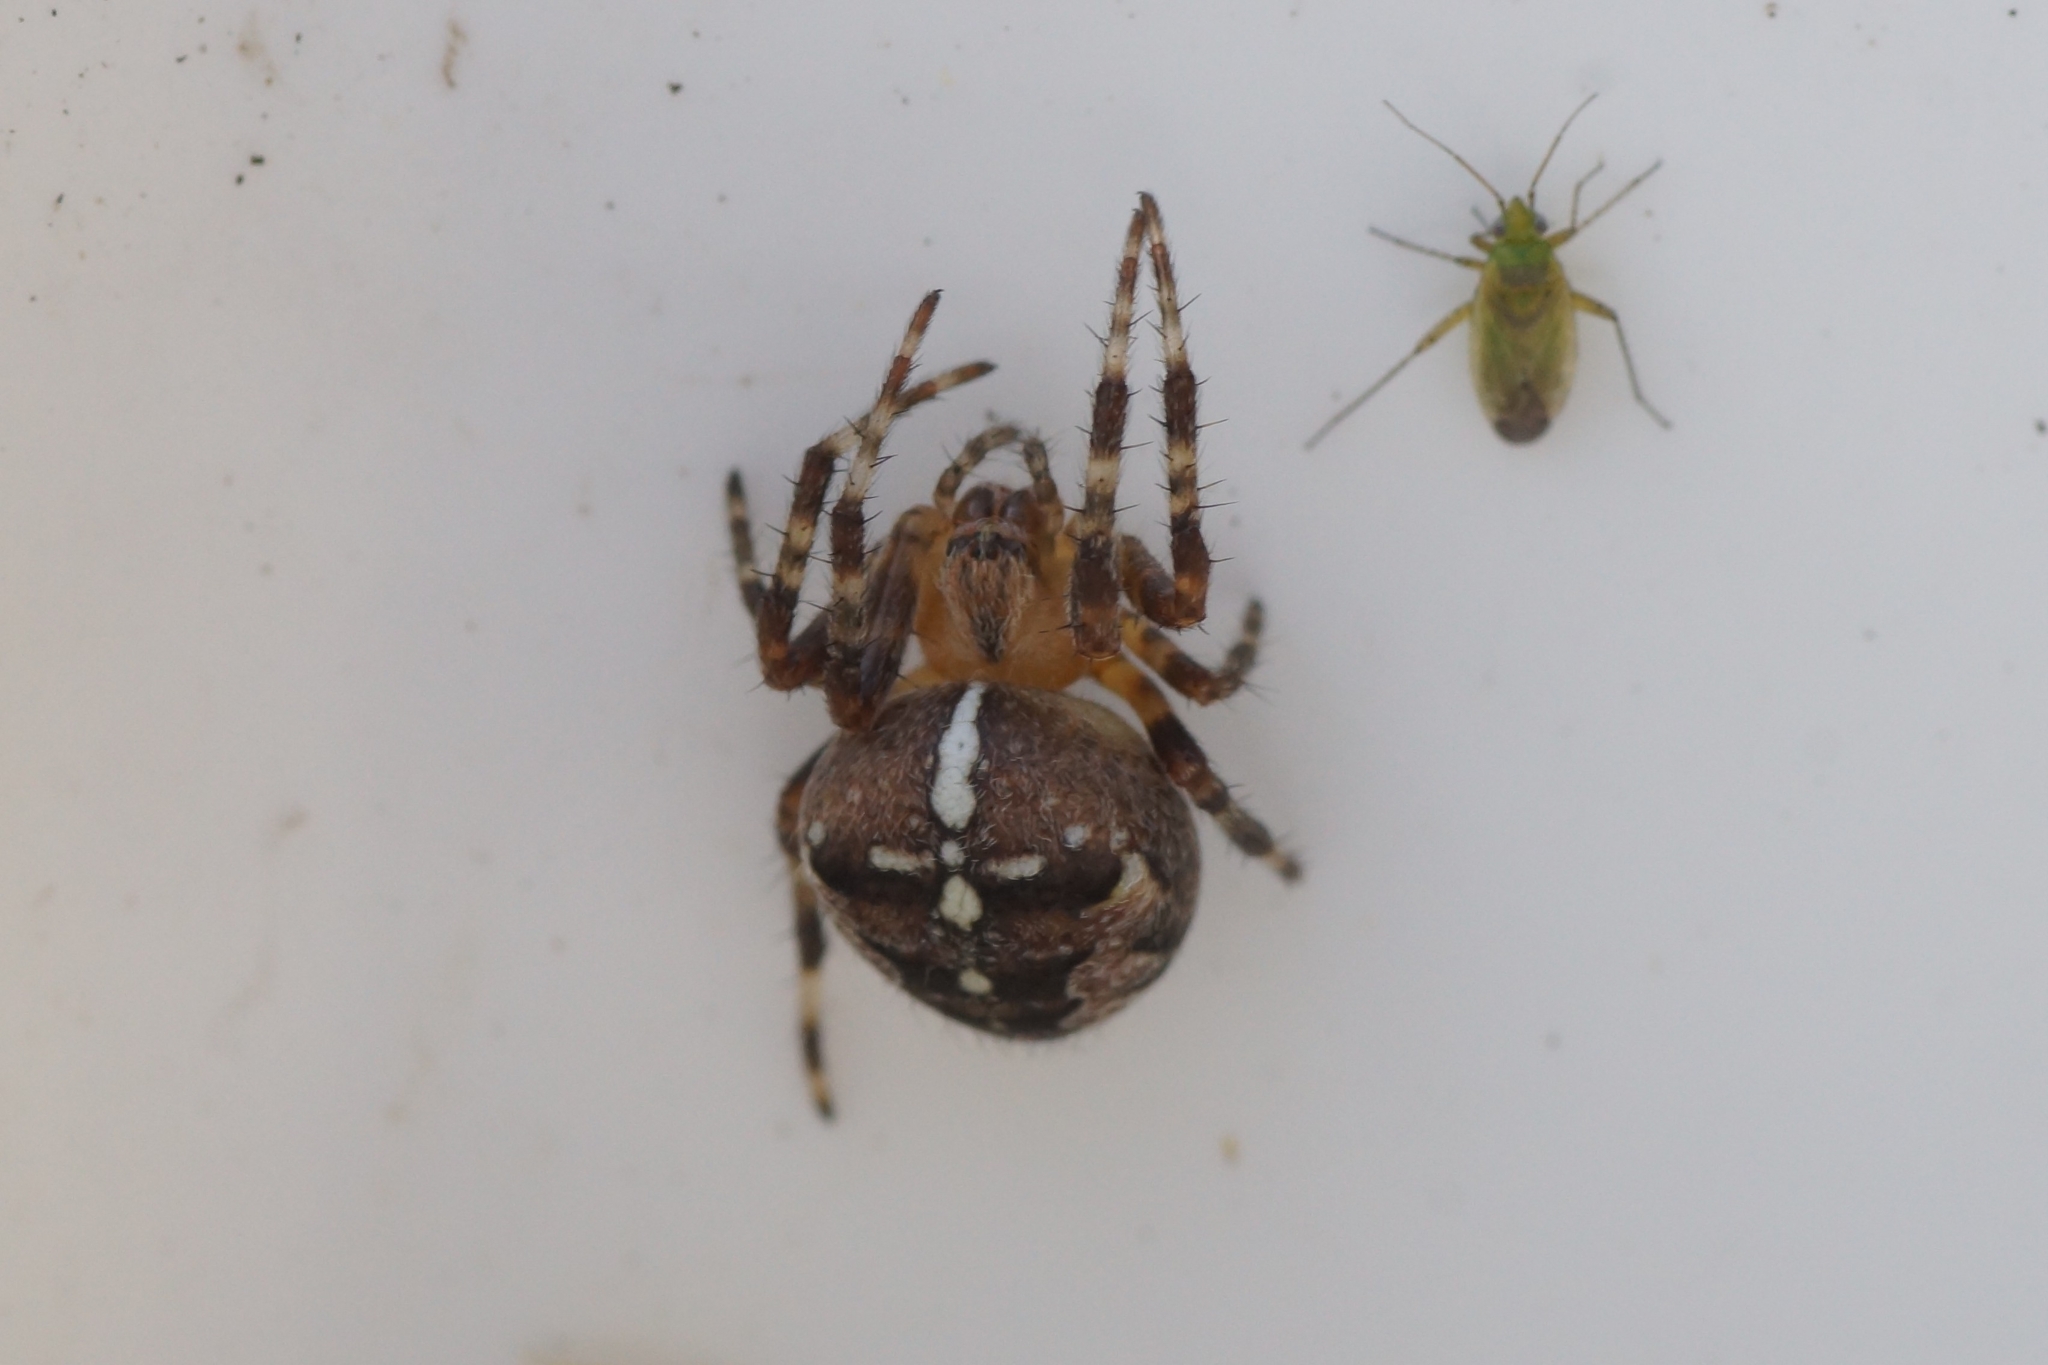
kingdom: Animalia
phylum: Arthropoda
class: Arachnida
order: Araneae
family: Araneidae
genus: Araneus
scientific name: Araneus diadematus
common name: Cross orbweaver
